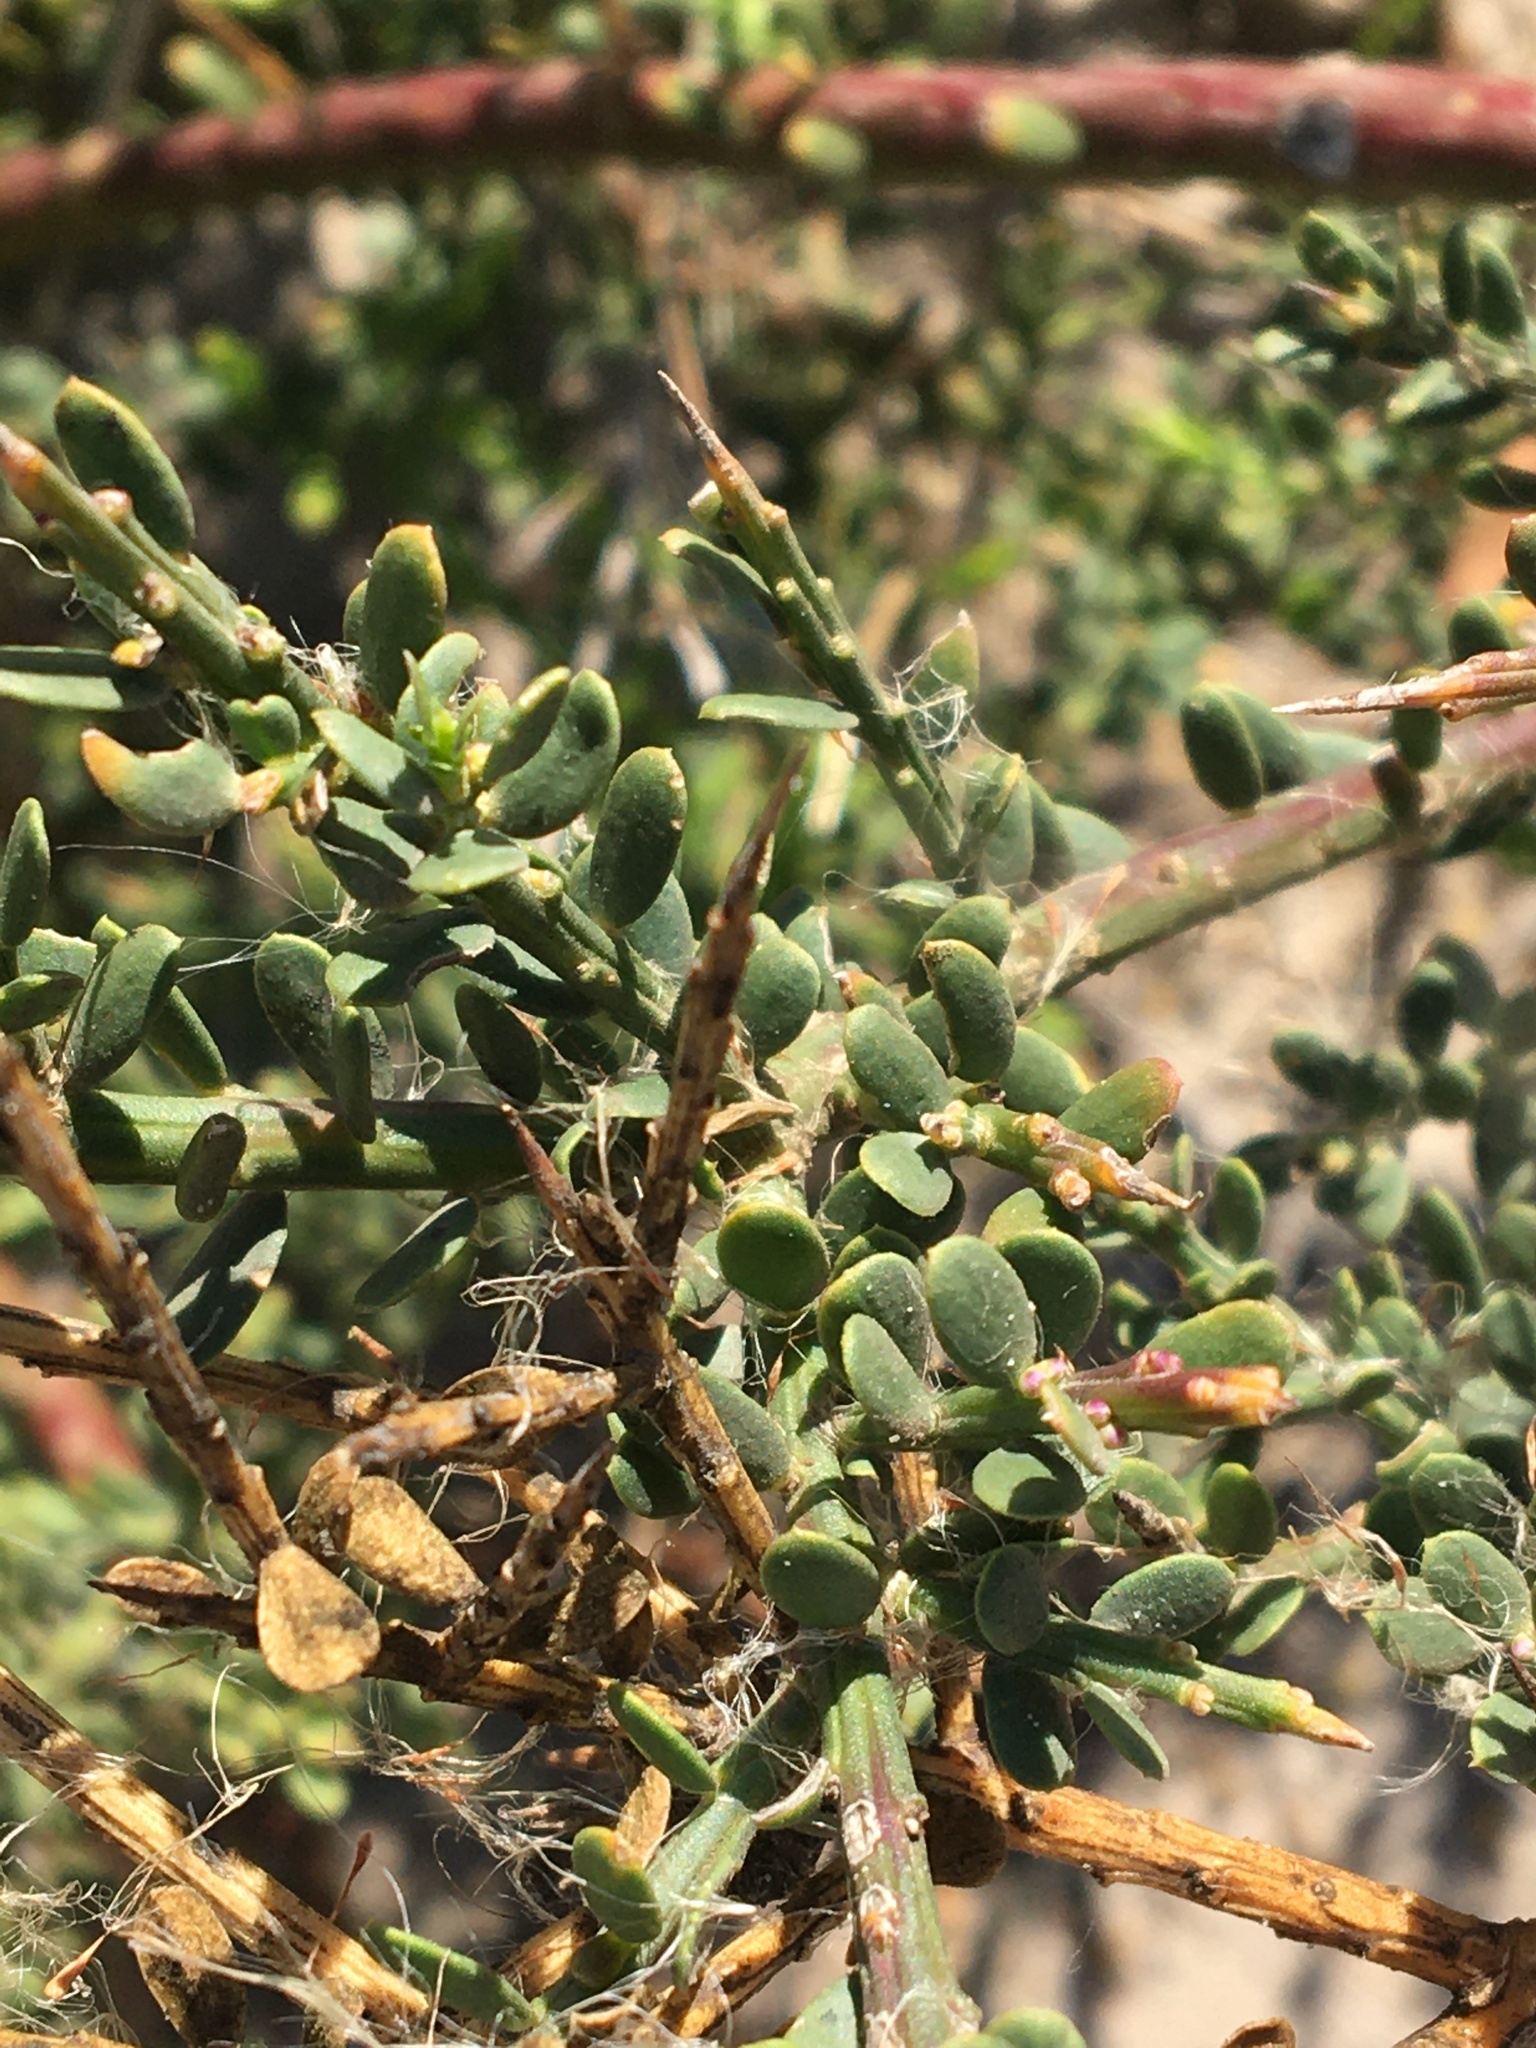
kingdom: Plantae
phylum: Tracheophyta
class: Magnoliopsida
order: Fabales
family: Polygalaceae
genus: Muraltia
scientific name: Muraltia spinosa
